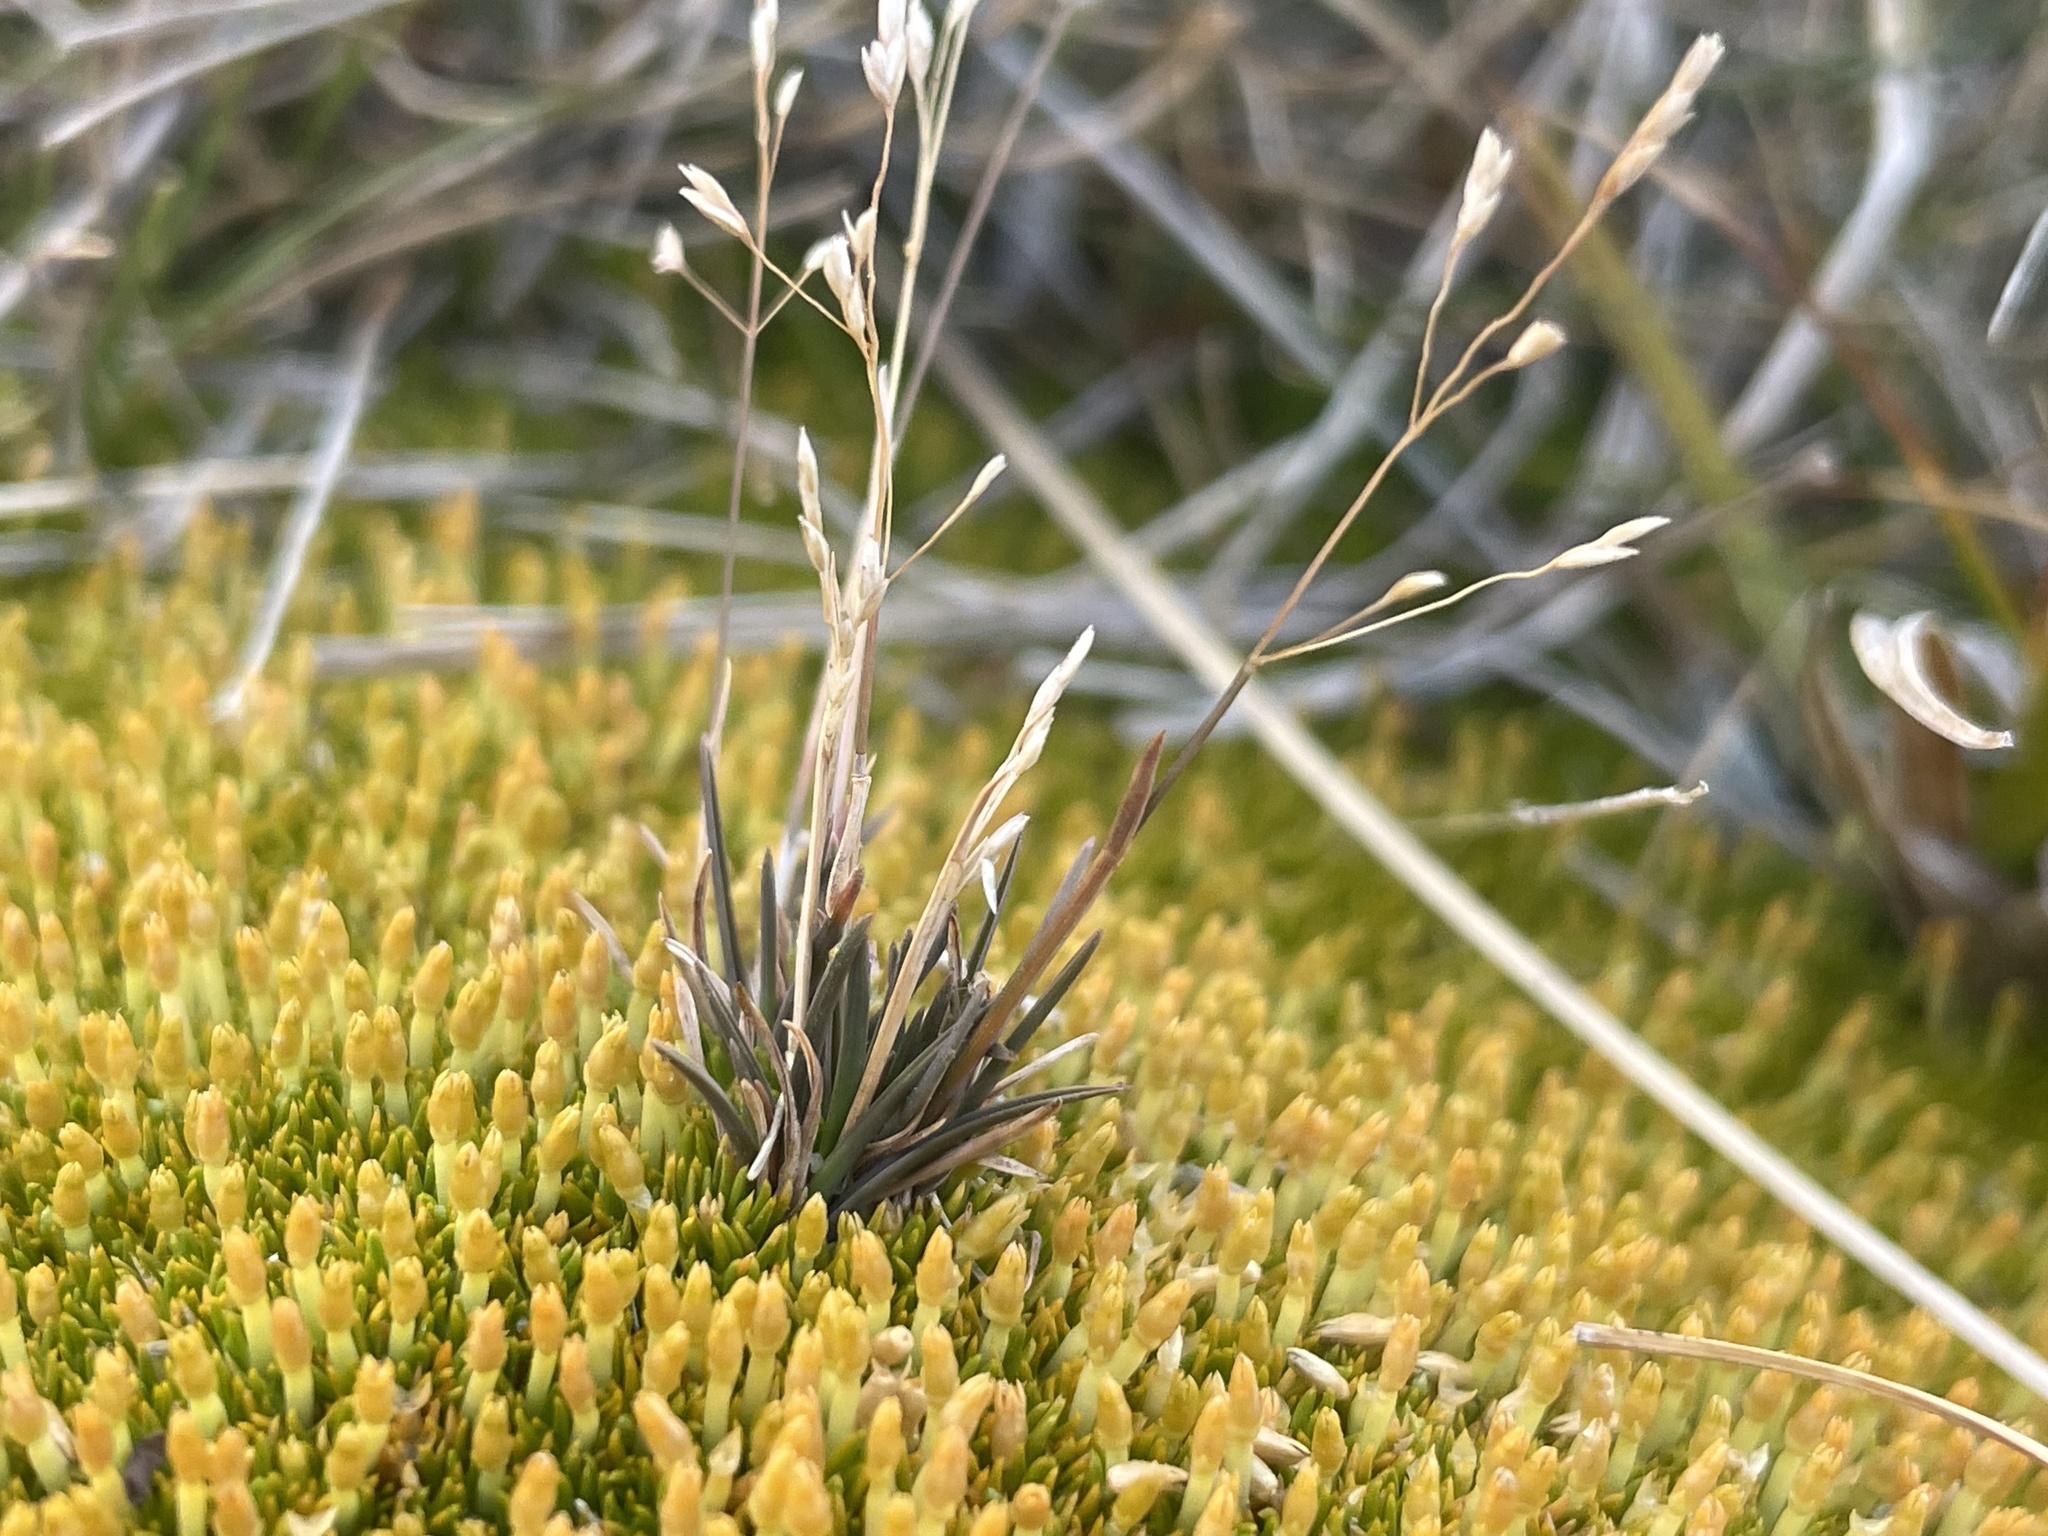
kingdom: Plantae
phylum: Tracheophyta
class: Liliopsida
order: Poales
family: Poaceae
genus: Poa
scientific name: Poa lindsayi
